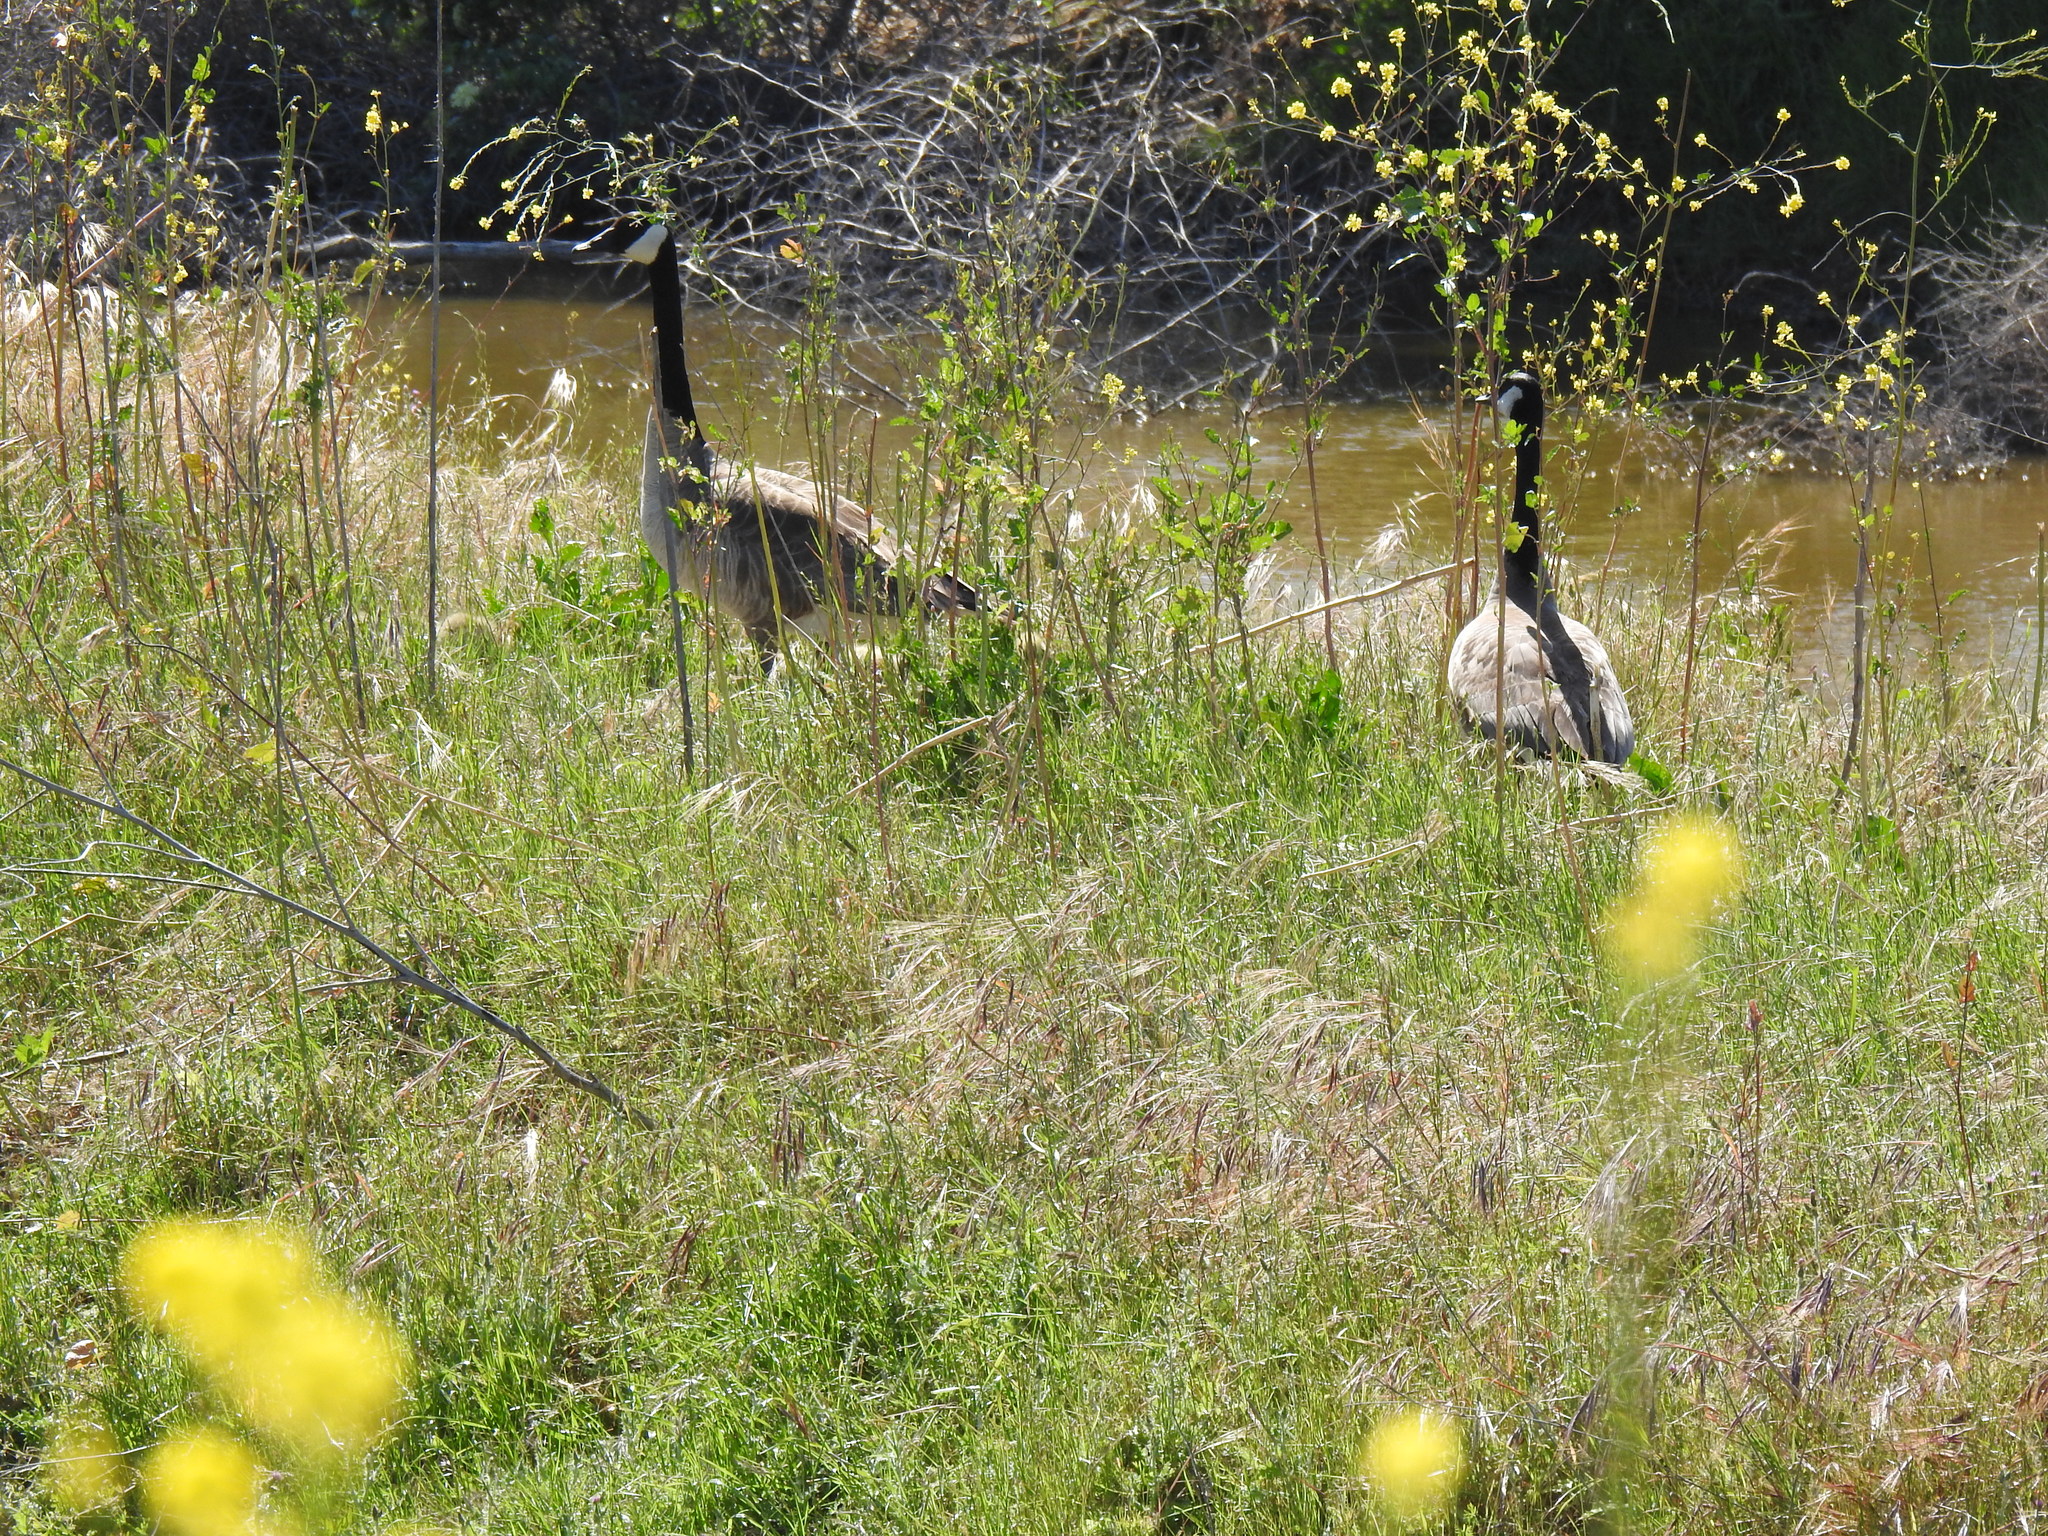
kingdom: Animalia
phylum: Chordata
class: Aves
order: Anseriformes
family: Anatidae
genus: Branta
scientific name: Branta canadensis
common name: Canada goose
